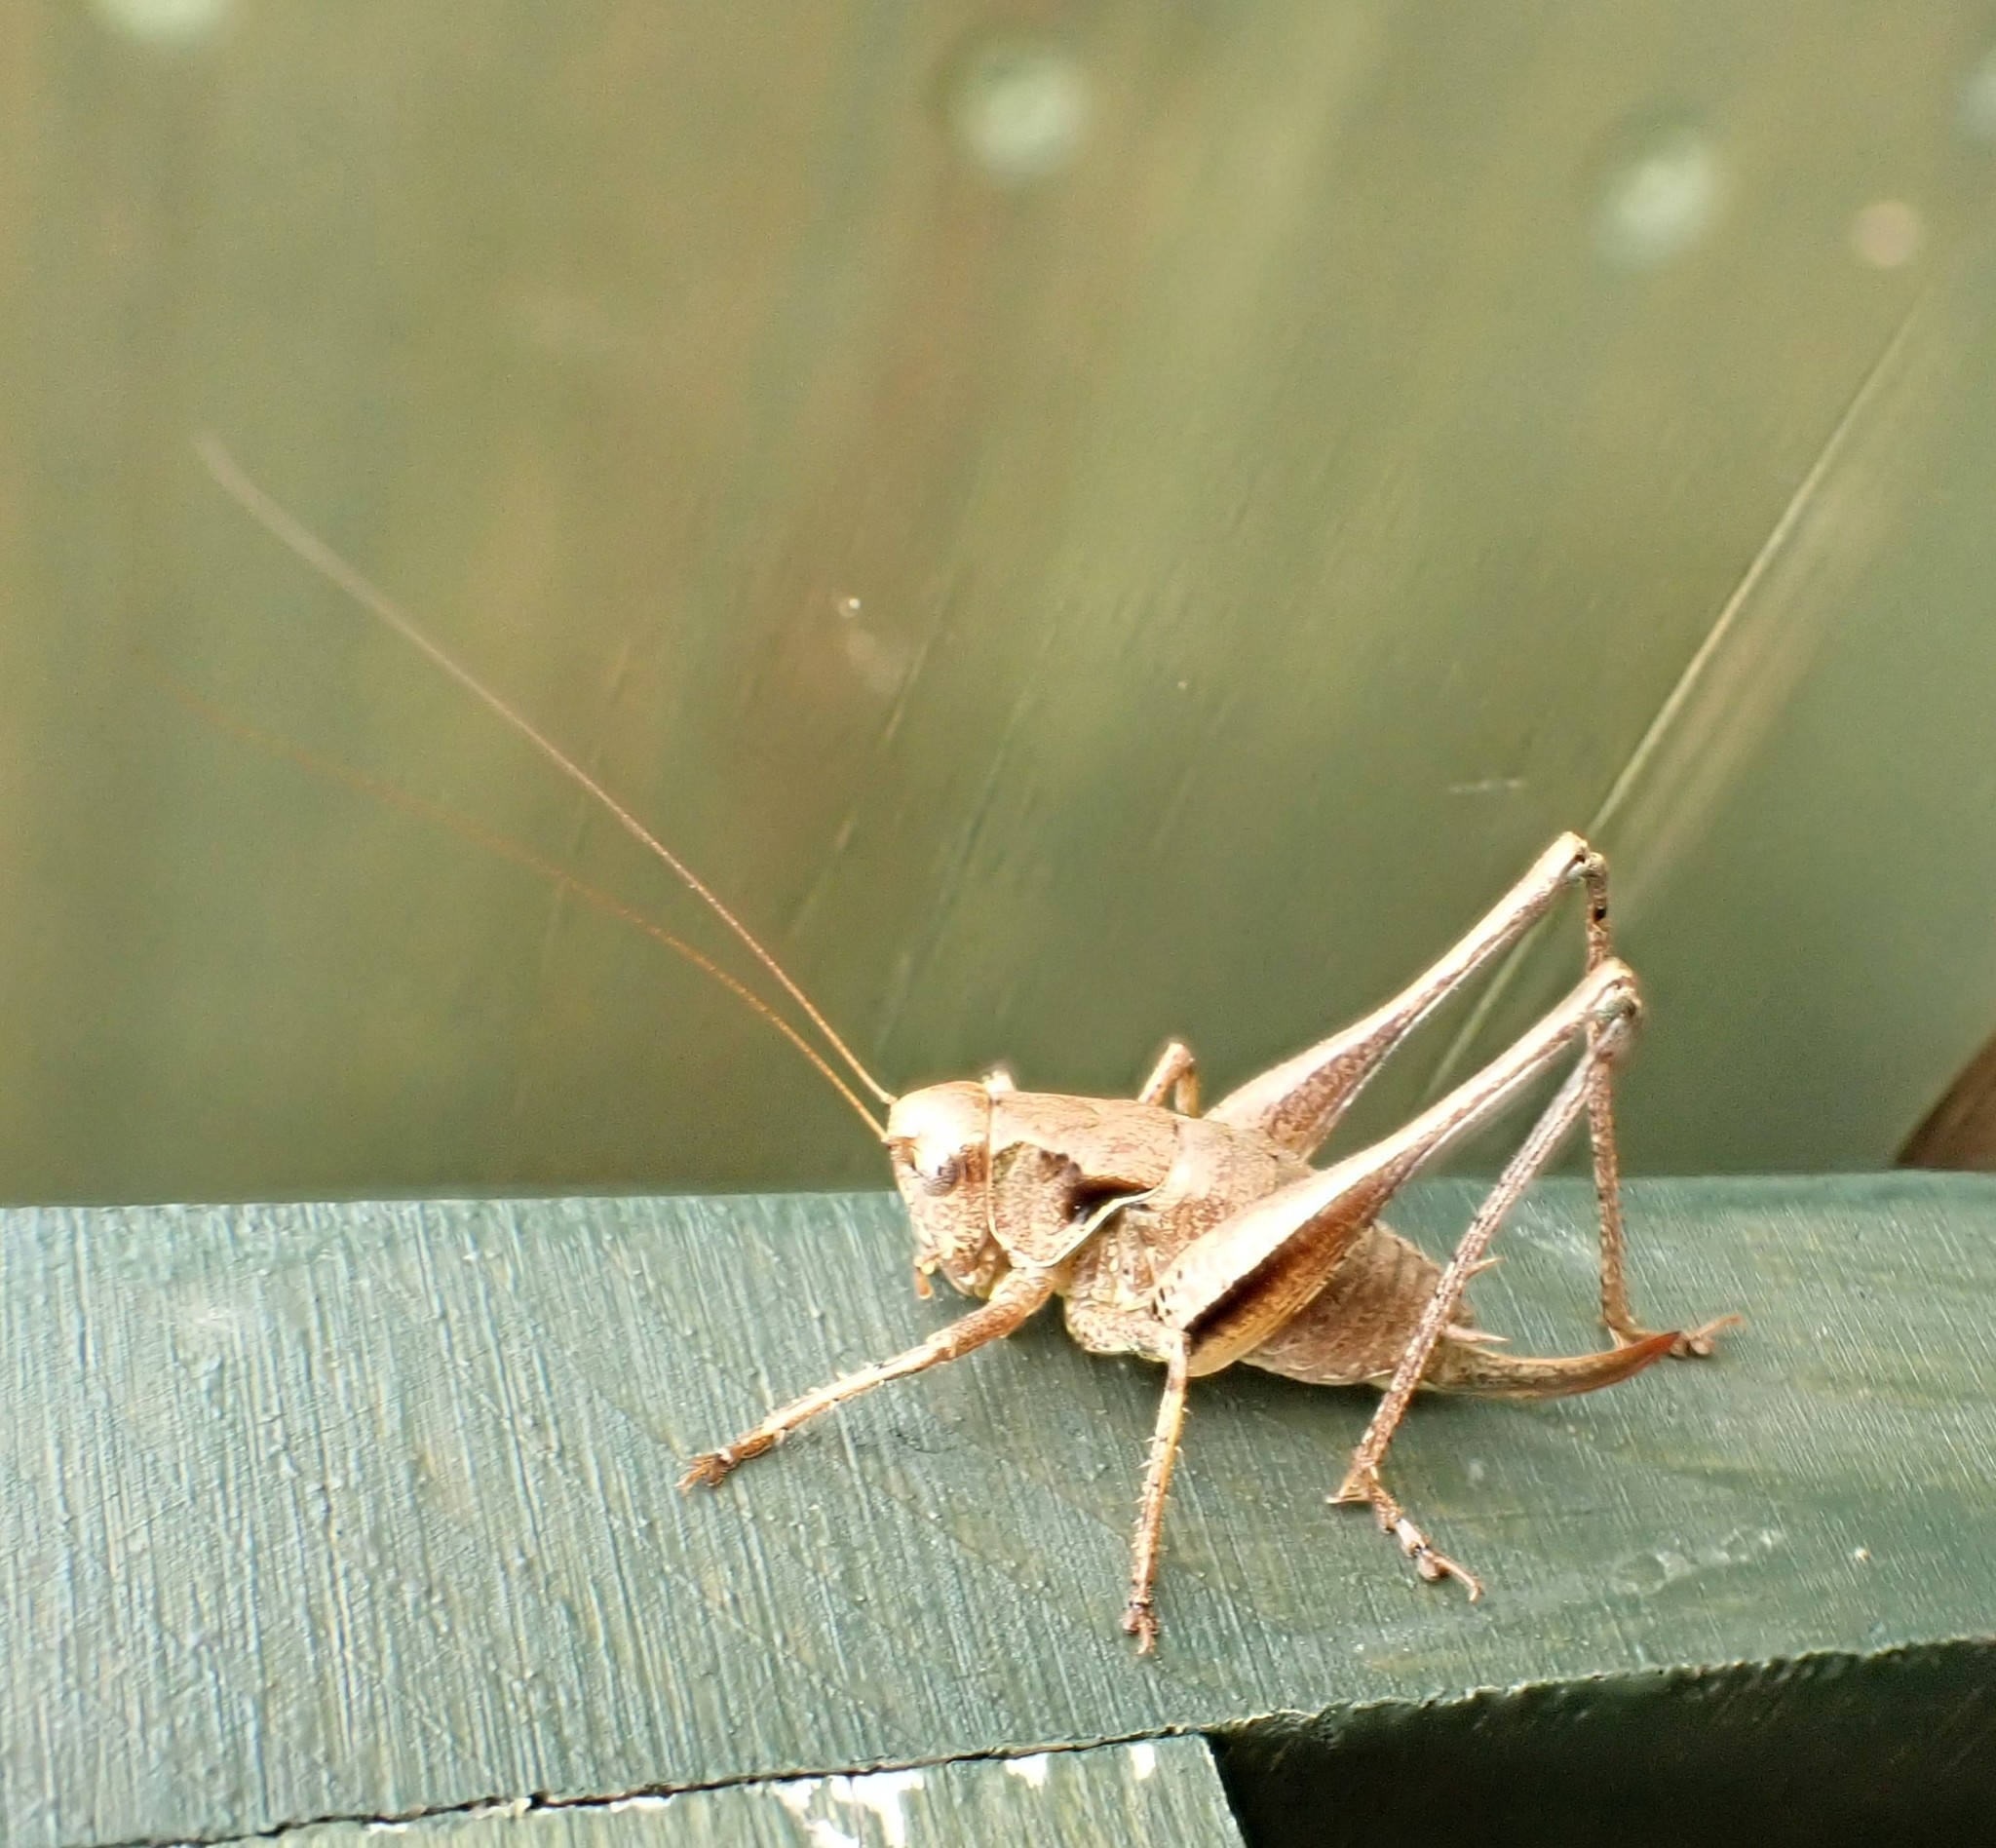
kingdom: Animalia
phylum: Arthropoda
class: Insecta
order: Orthoptera
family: Tettigoniidae
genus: Pholidoptera
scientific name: Pholidoptera griseoaptera
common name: Dark bush-cricket
